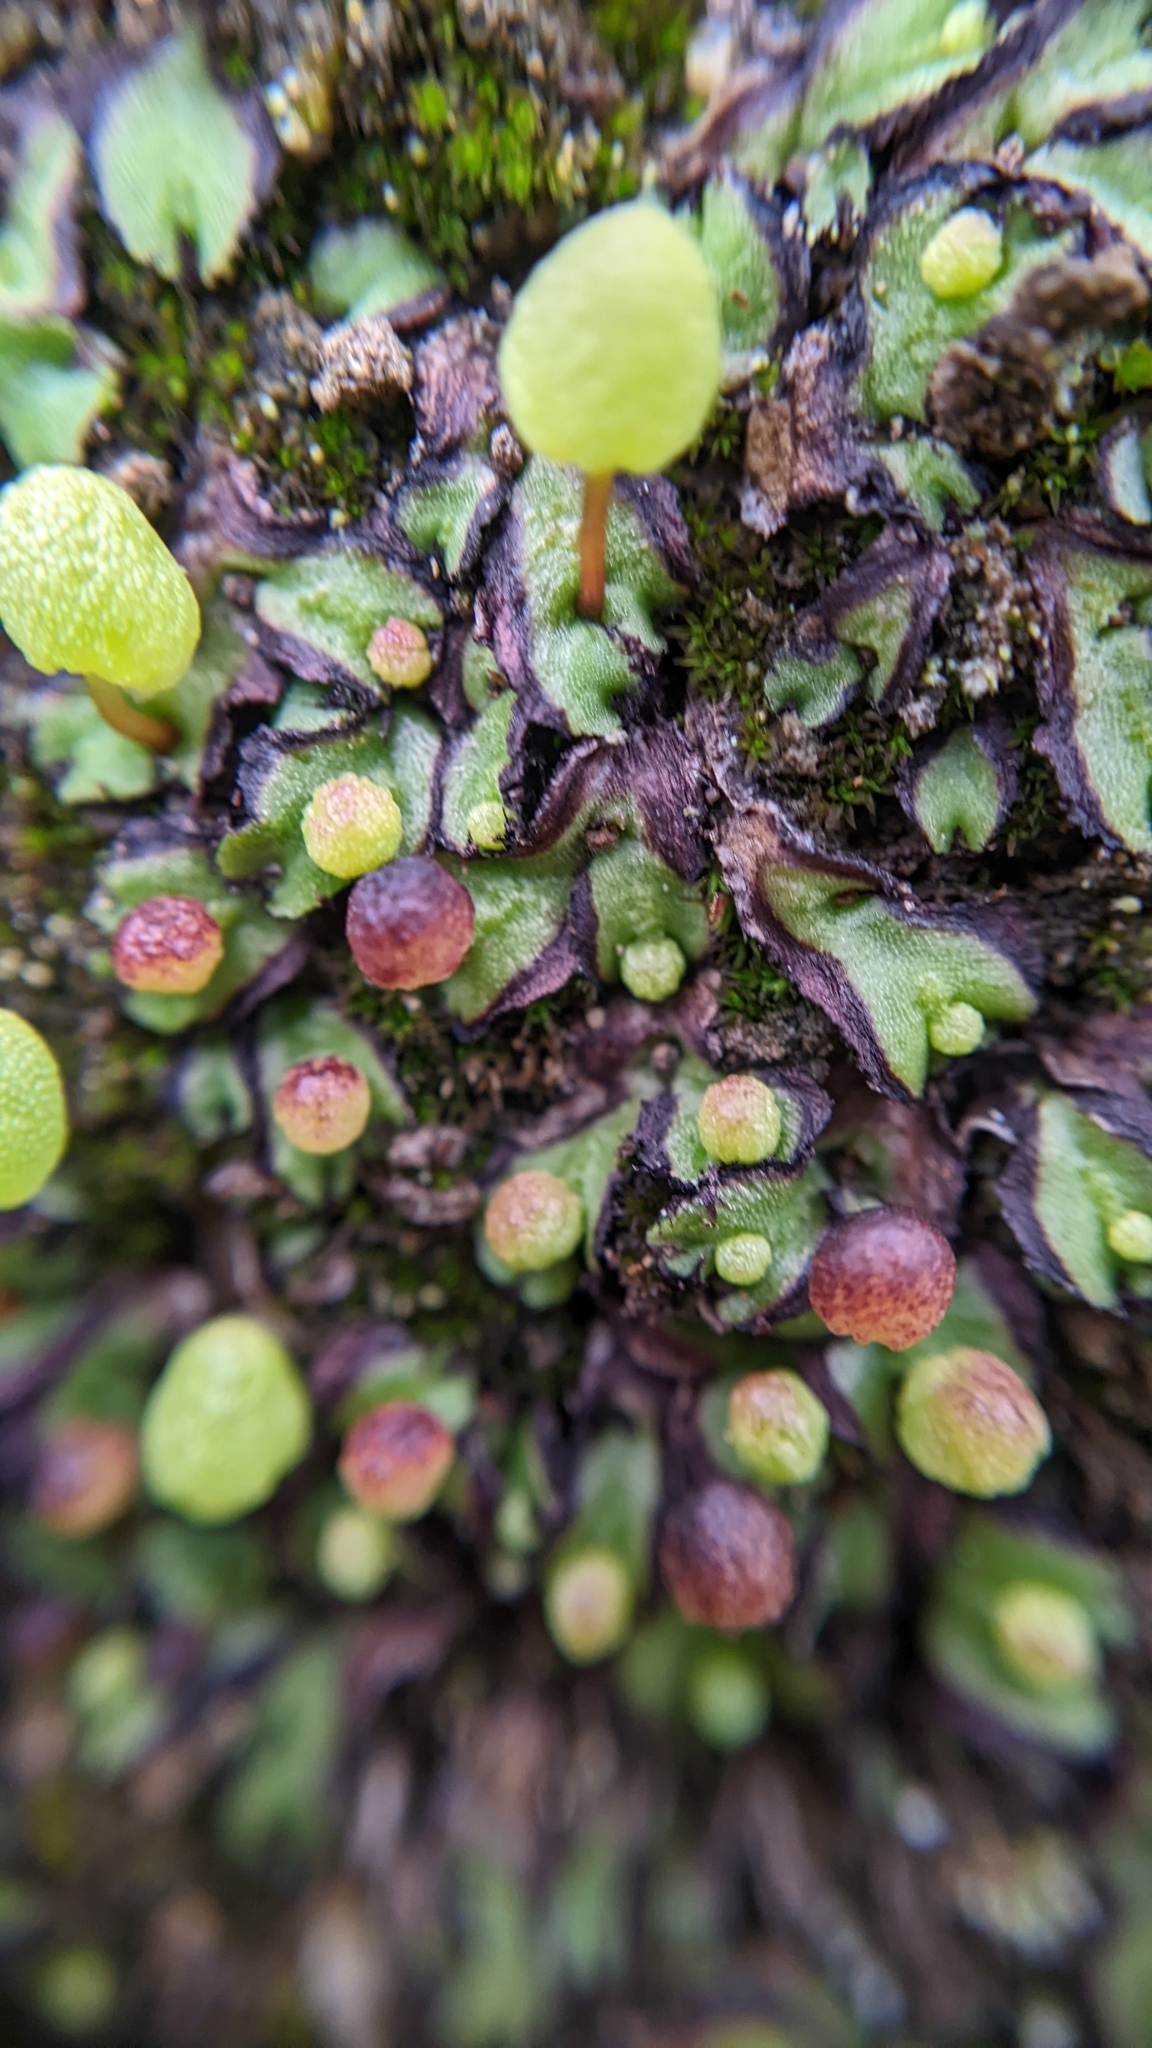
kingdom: Plantae
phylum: Marchantiophyta
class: Marchantiopsida
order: Marchantiales
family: Aytoniaceae
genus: Asterella
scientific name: Asterella palmeri
